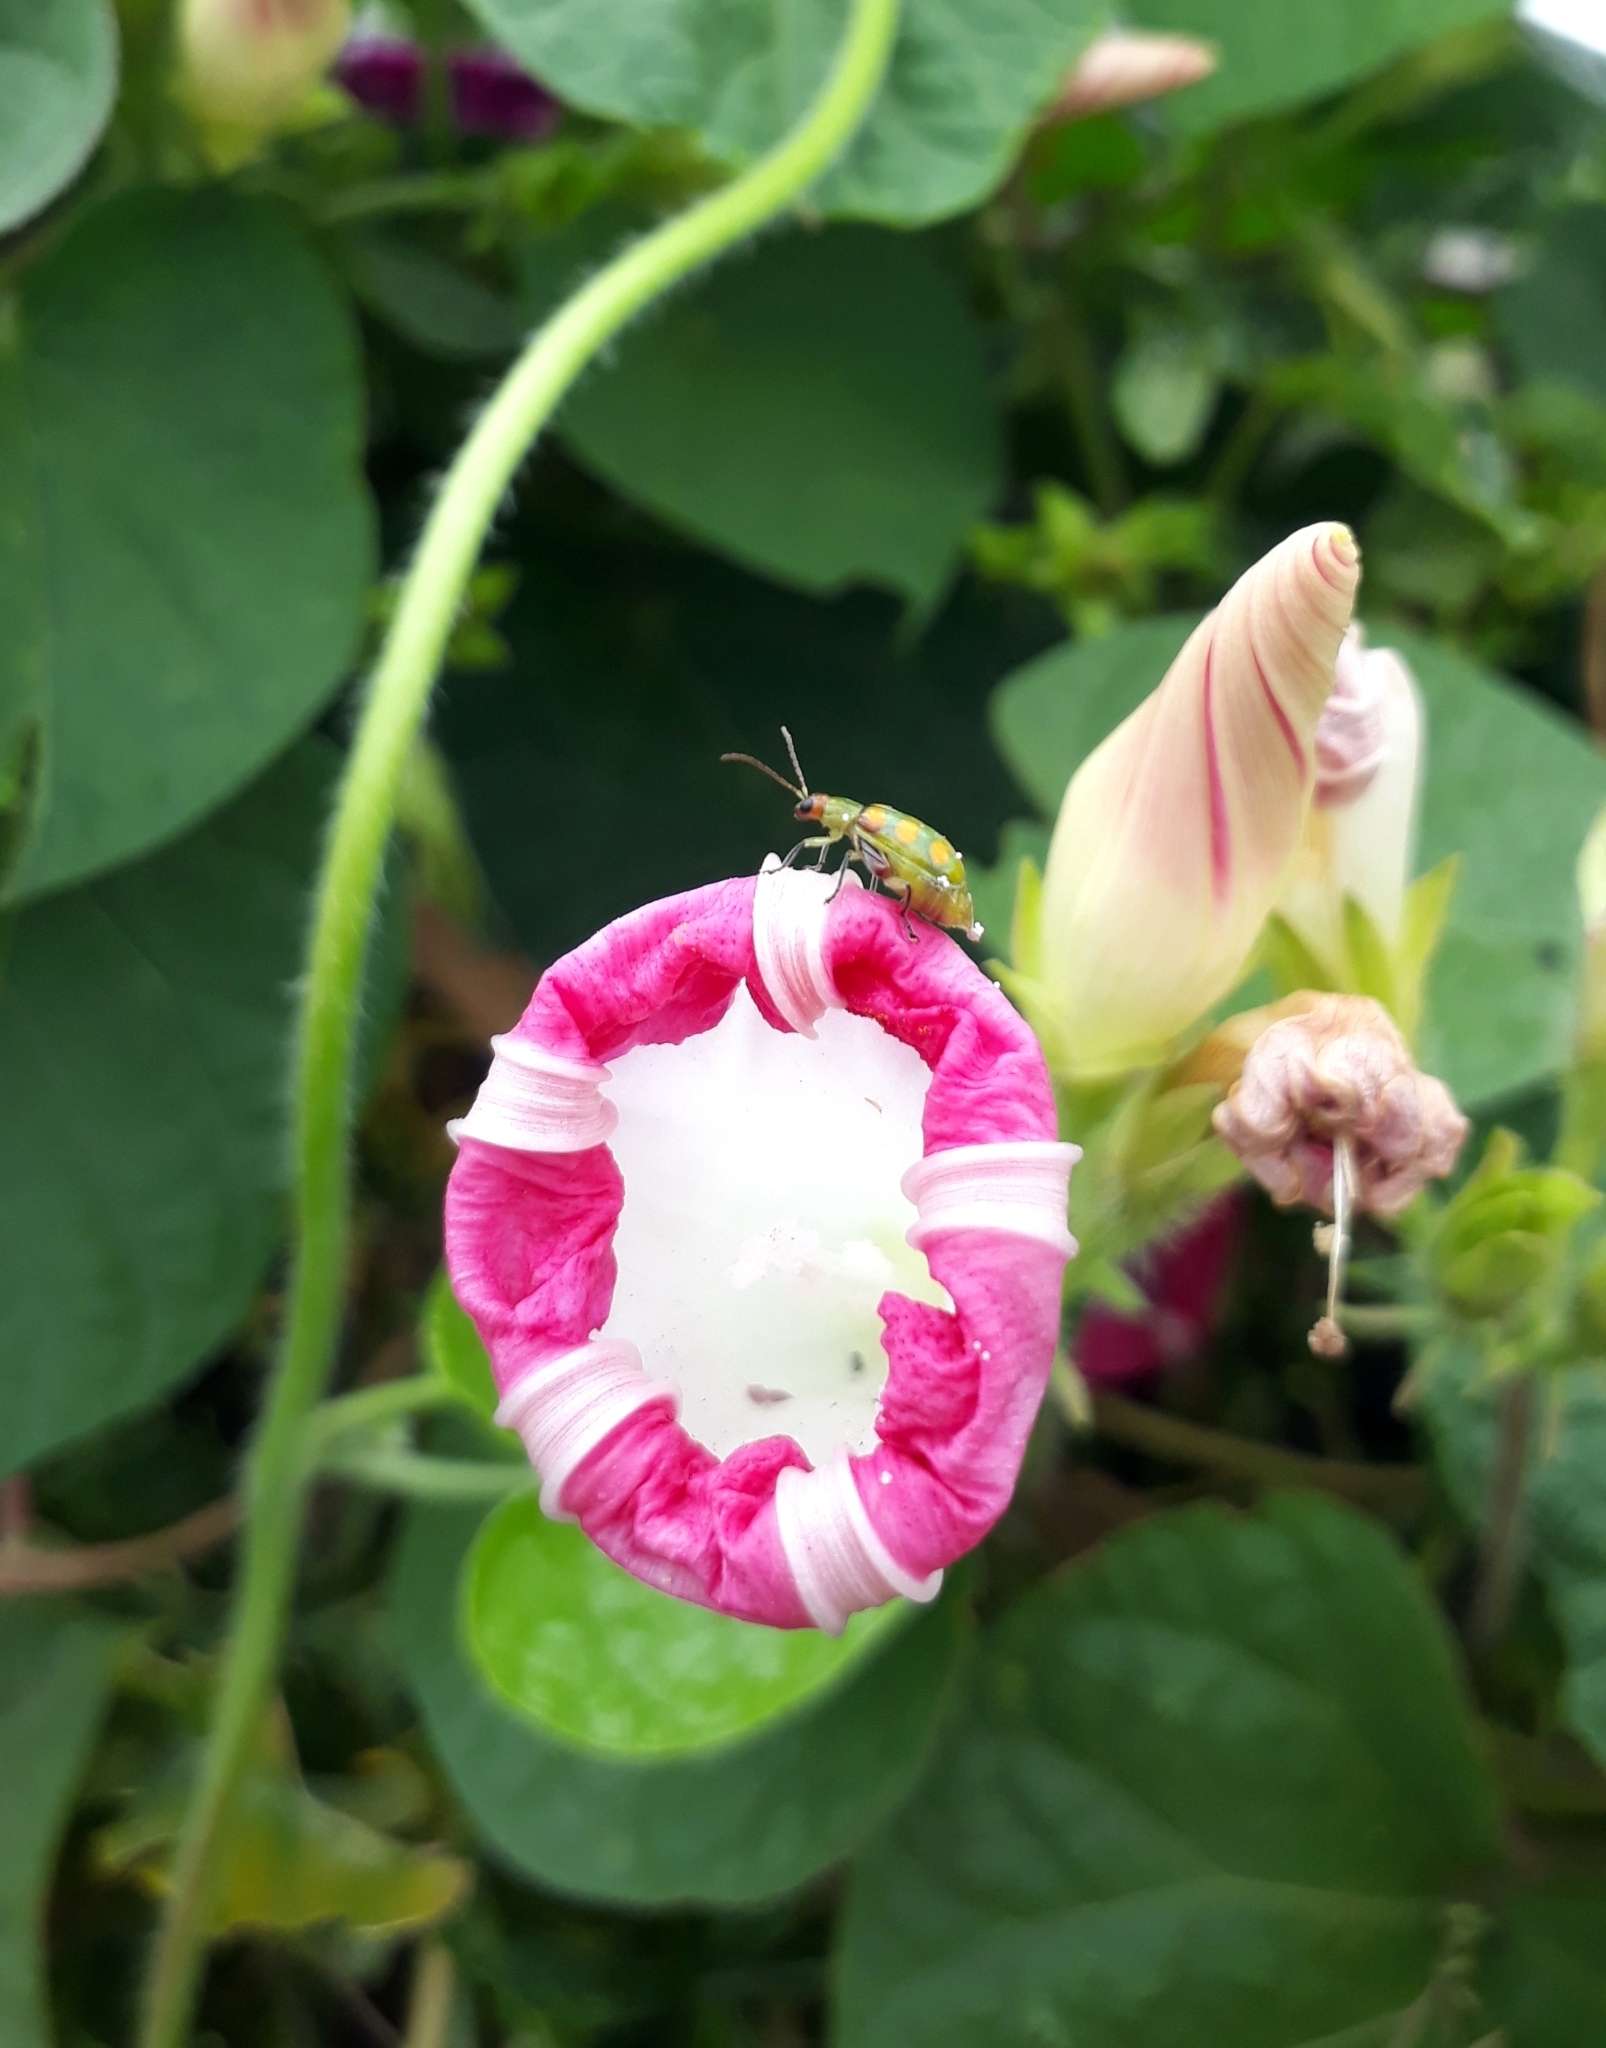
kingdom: Animalia
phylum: Arthropoda
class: Insecta
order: Coleoptera
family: Chrysomelidae
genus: Diabrotica
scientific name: Diabrotica speciosa
